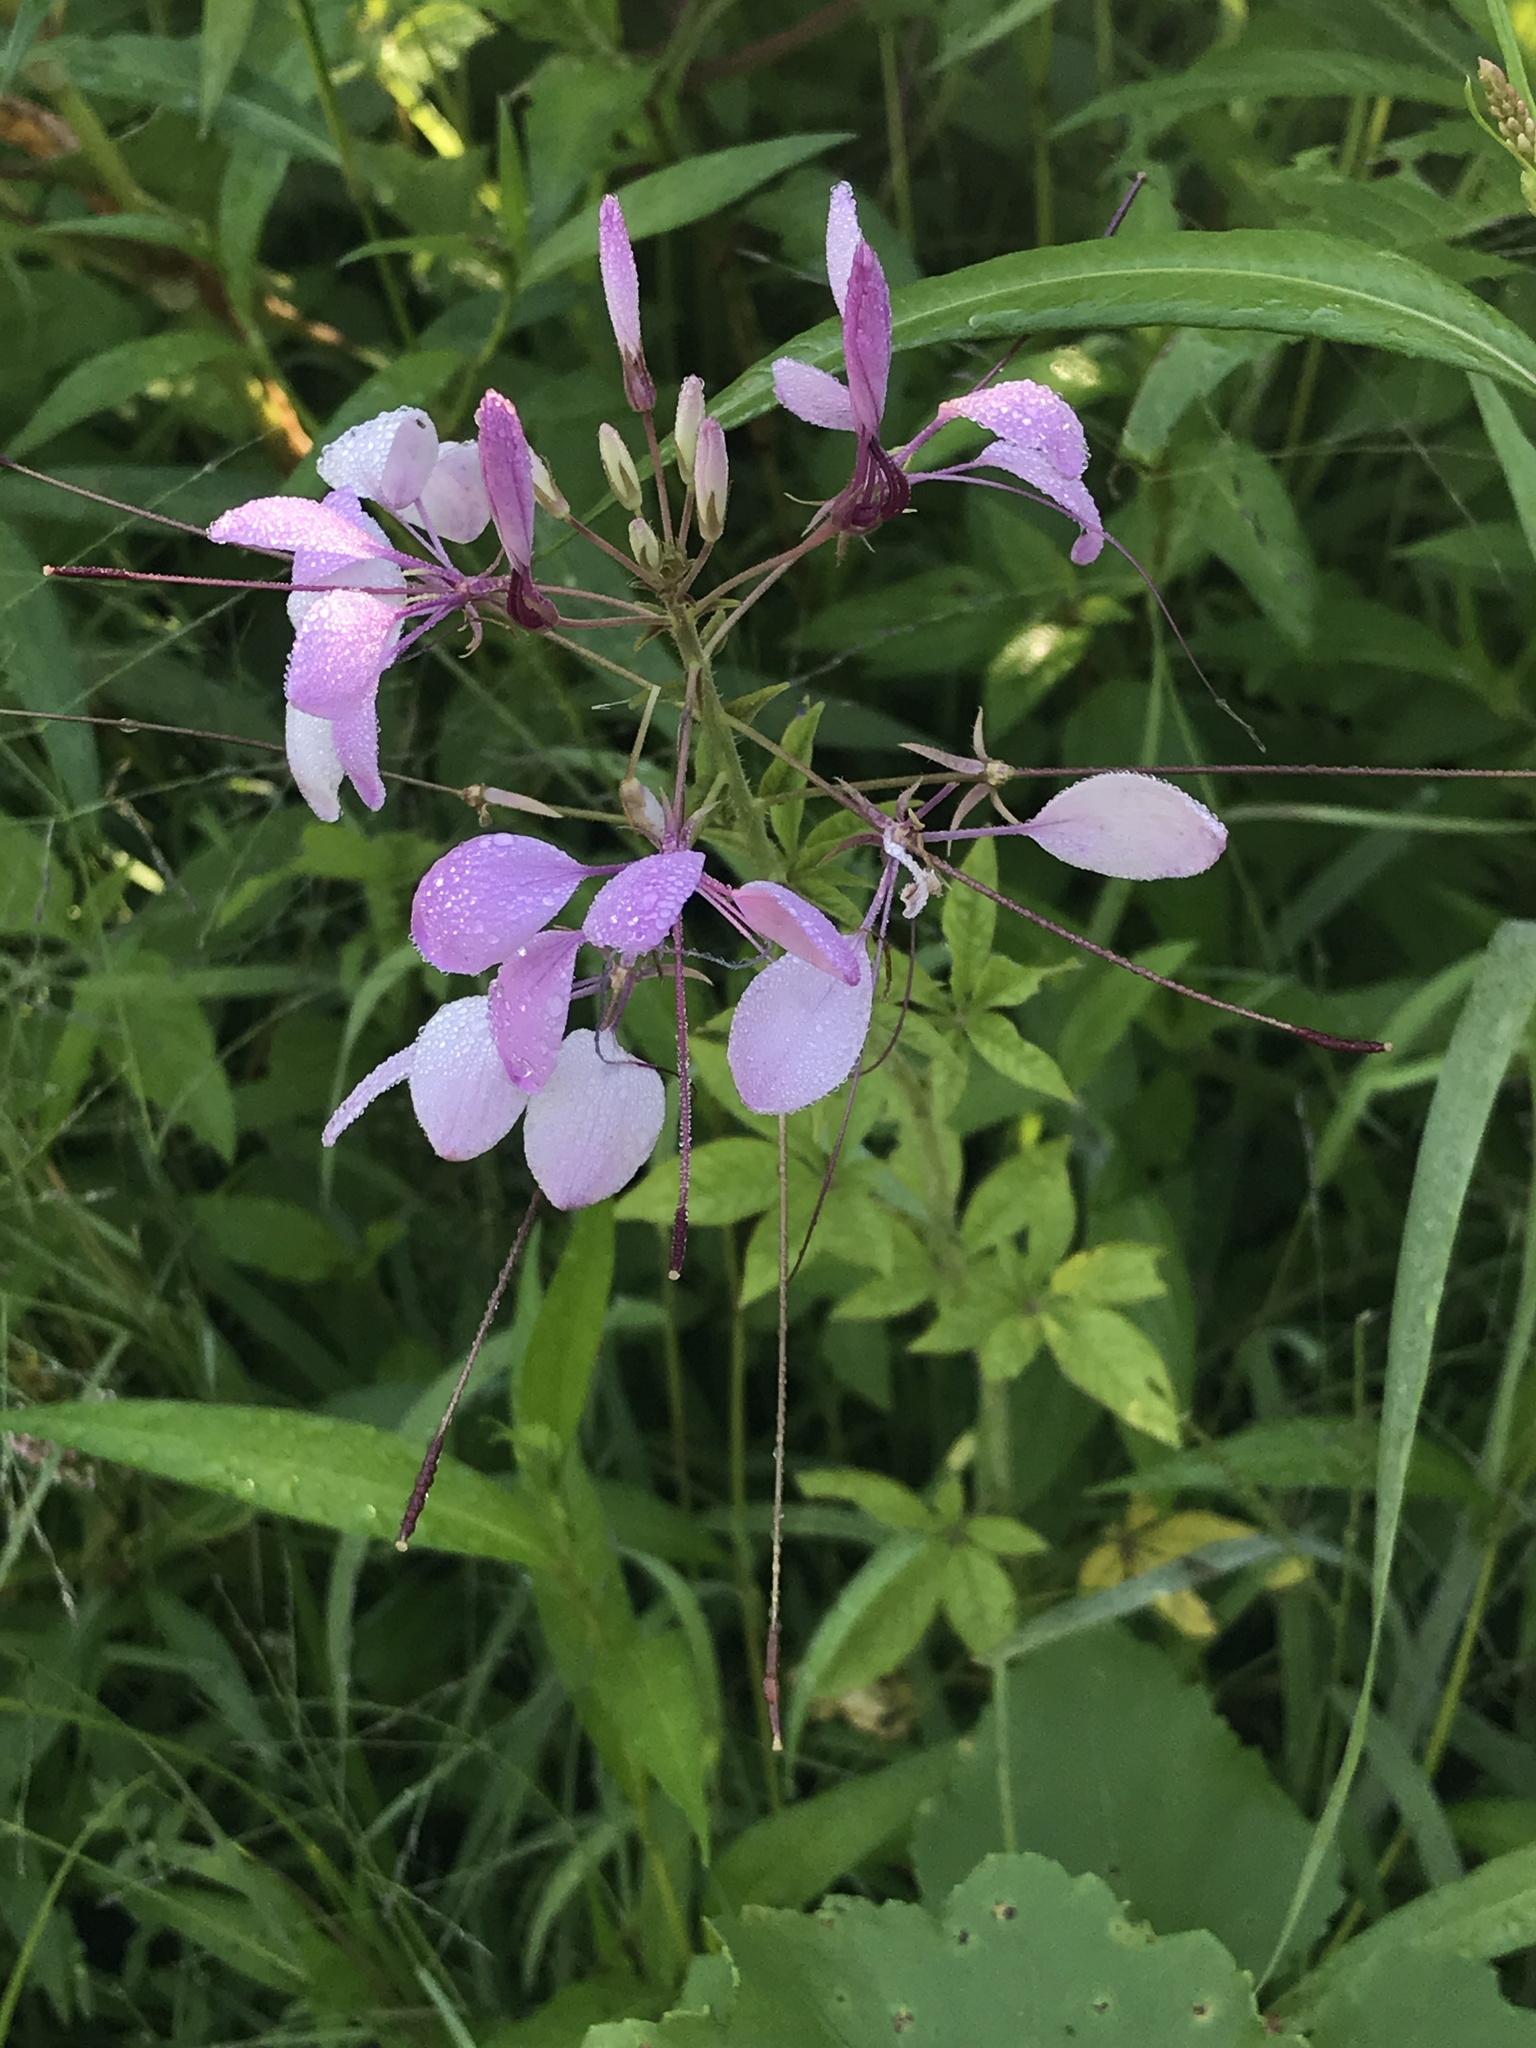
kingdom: Plantae
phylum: Tracheophyta
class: Magnoliopsida
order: Brassicales
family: Cleomaceae
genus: Tarenaya
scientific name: Tarenaya houtteana
